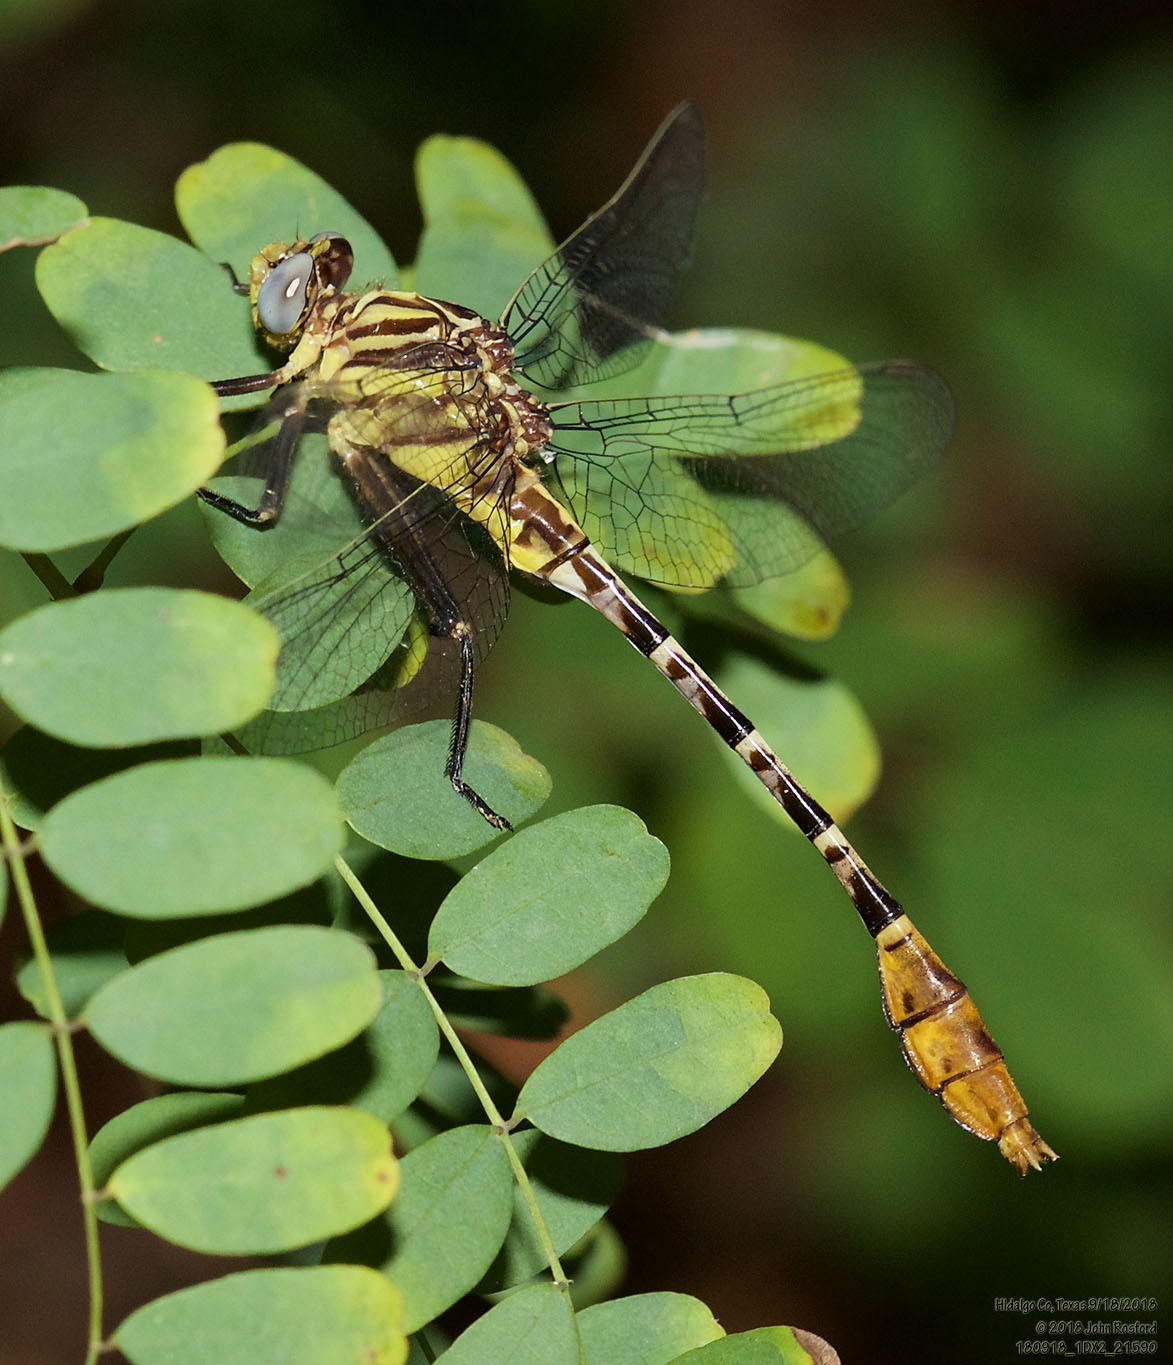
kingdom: Animalia
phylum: Arthropoda
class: Insecta
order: Odonata
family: Gomphidae
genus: Dromogomphus
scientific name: Dromogomphus spoliatus
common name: Flag-tailed spinyleg
